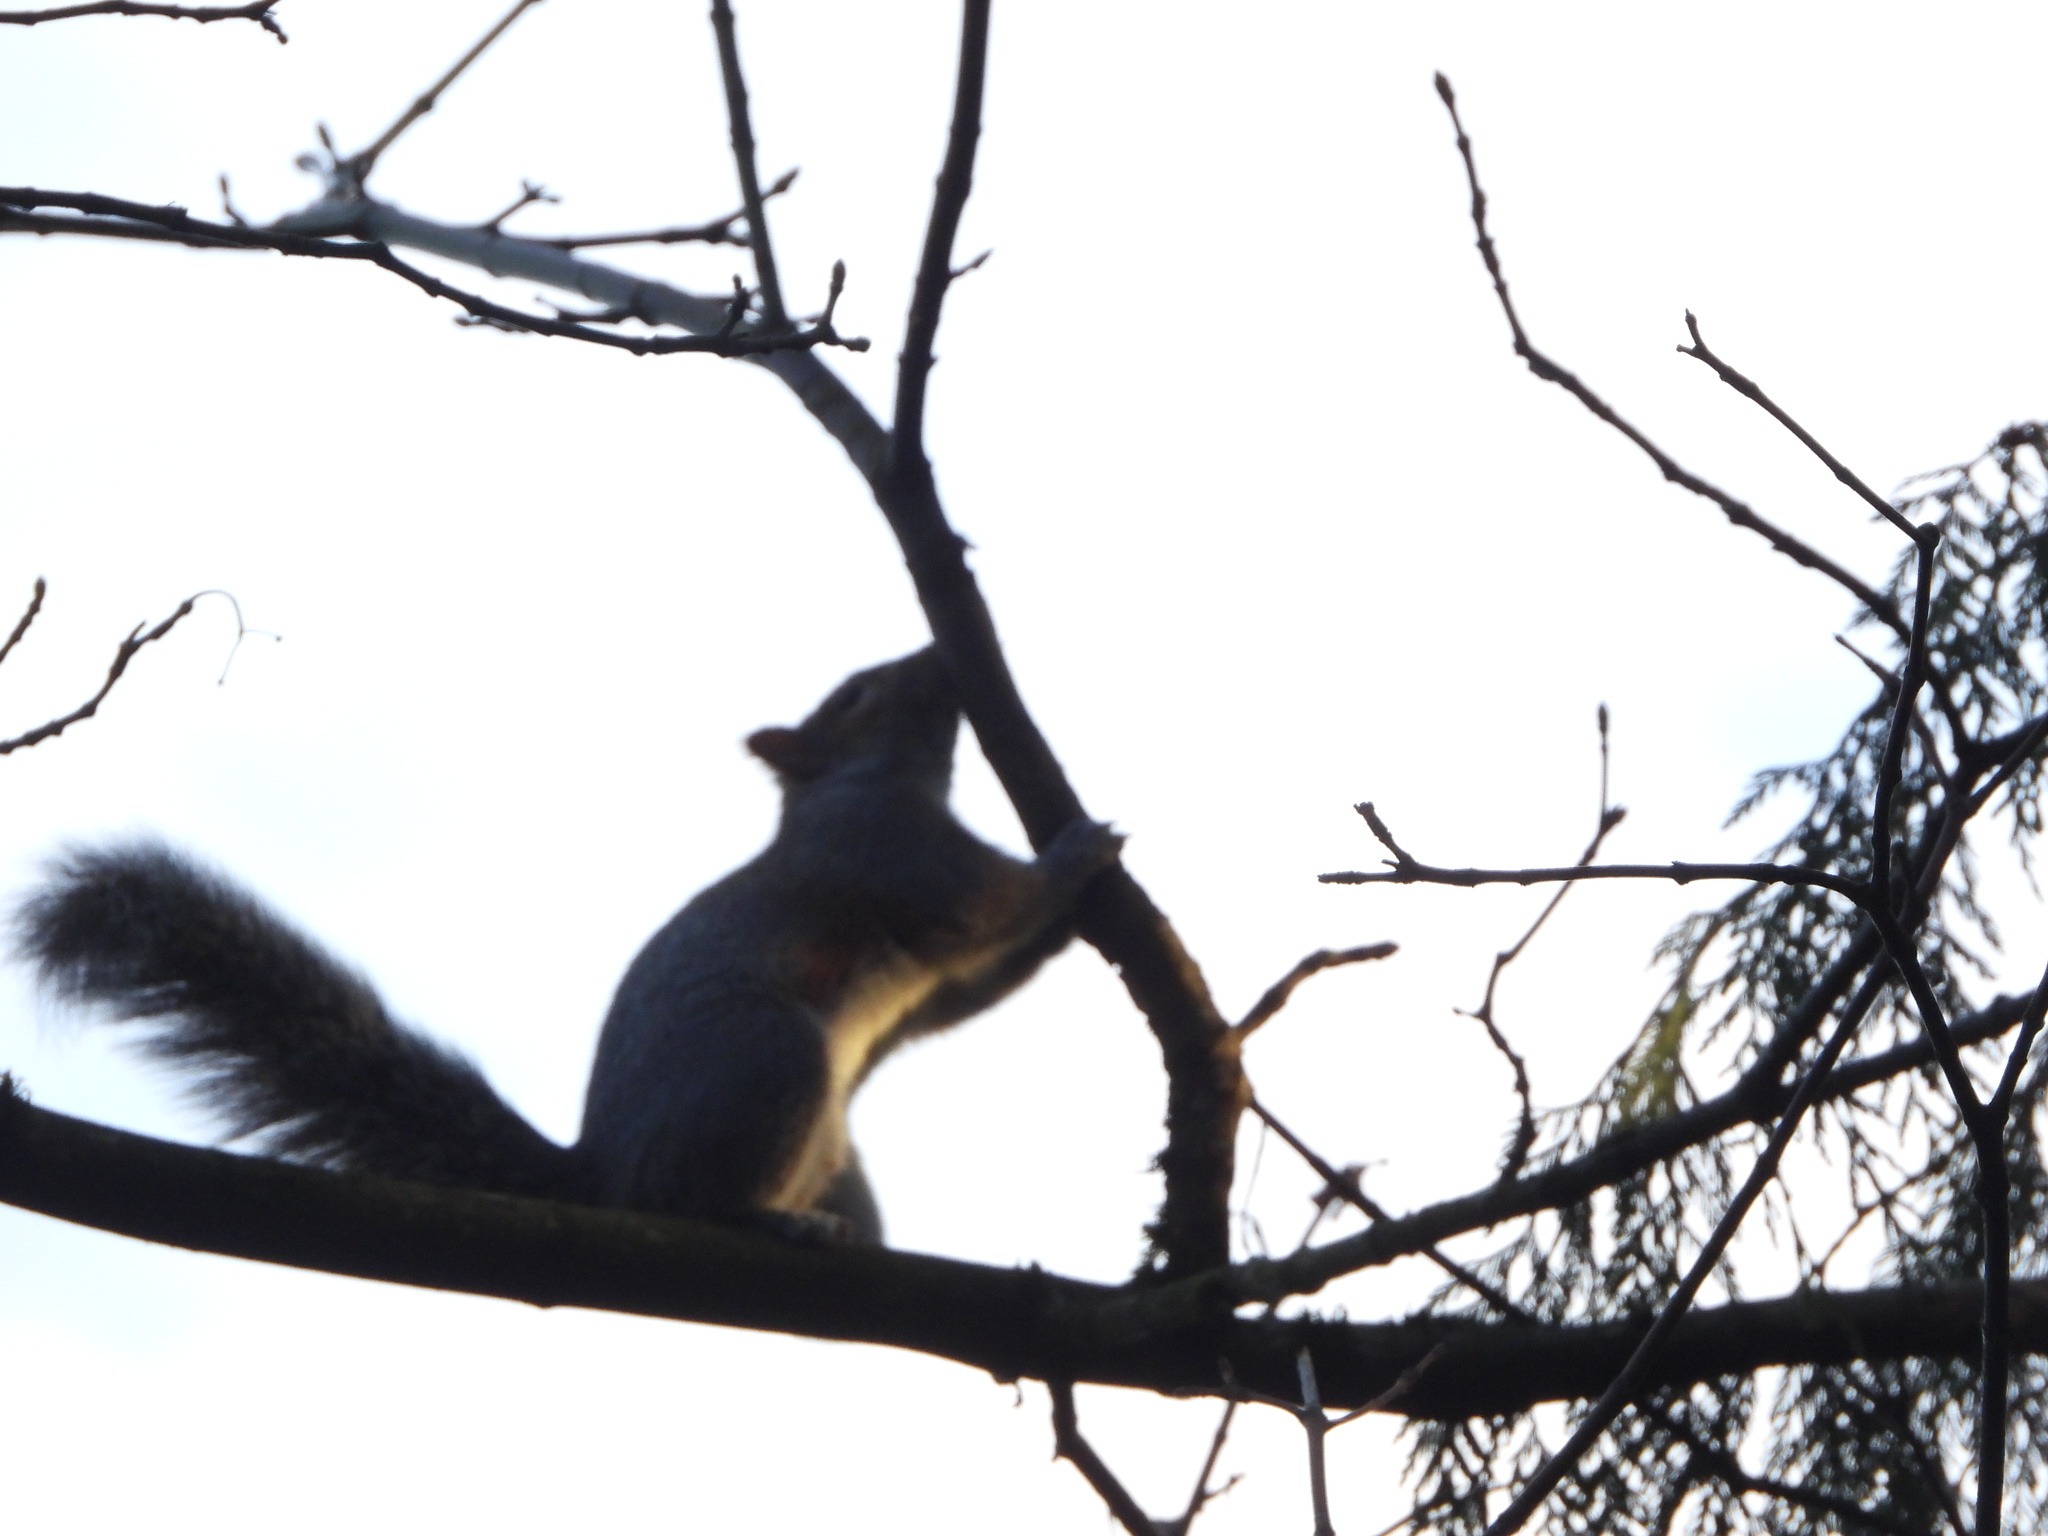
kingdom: Animalia
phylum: Chordata
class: Mammalia
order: Rodentia
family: Sciuridae
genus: Sciurus
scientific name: Sciurus carolinensis
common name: Eastern gray squirrel
